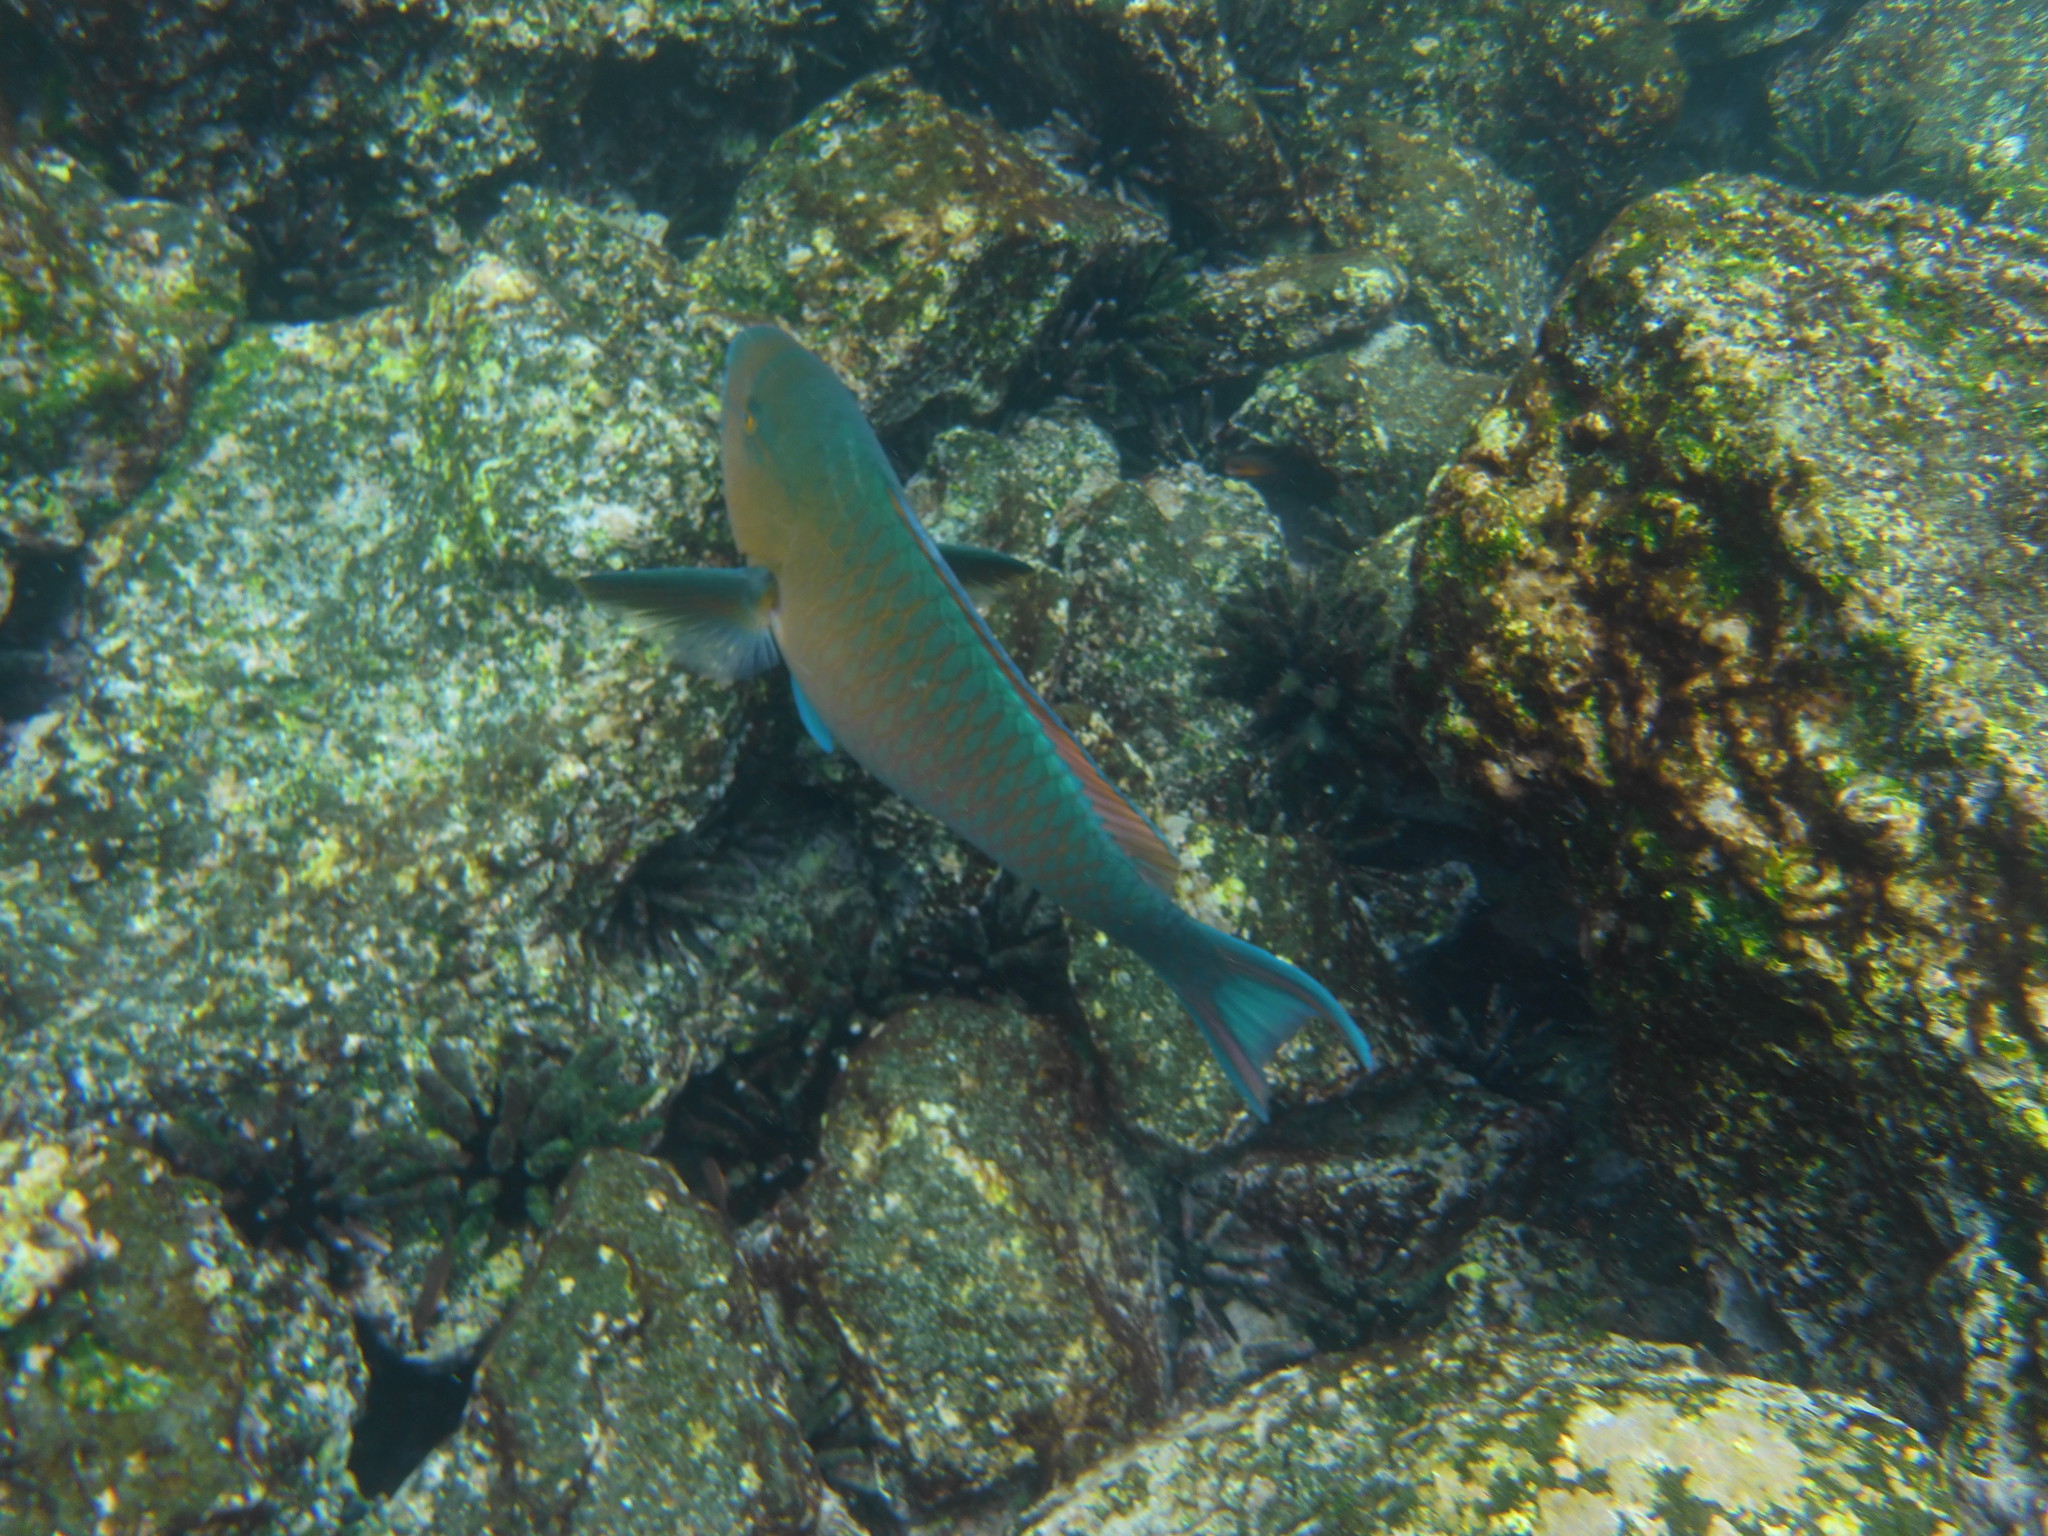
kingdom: Animalia
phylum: Chordata
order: Perciformes
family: Scaridae
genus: Scarus
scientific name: Scarus ghobban
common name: Blue-barred parrotfish
